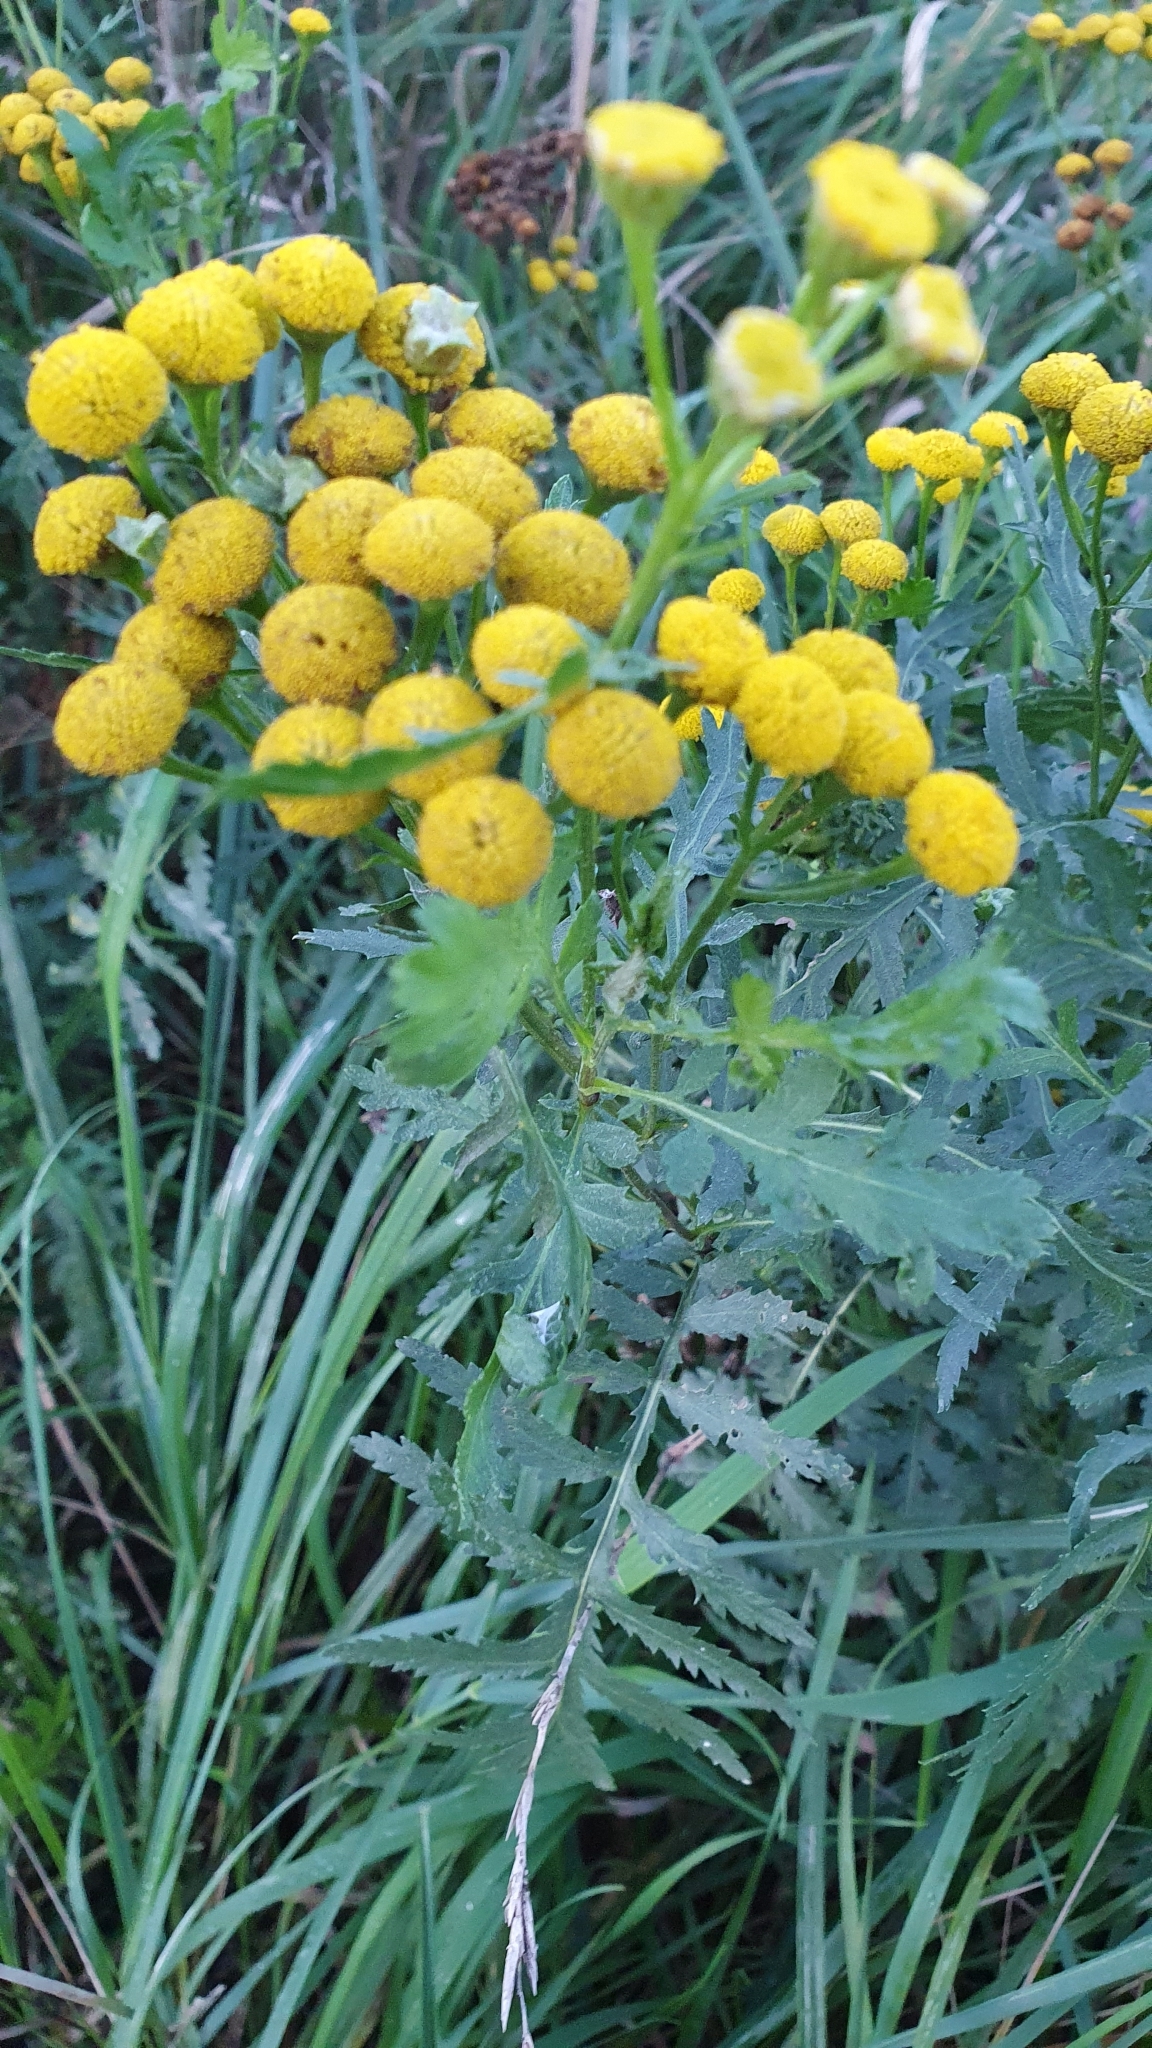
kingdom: Plantae
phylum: Tracheophyta
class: Magnoliopsida
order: Asterales
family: Asteraceae
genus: Tanacetum
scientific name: Tanacetum vulgare
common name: Common tansy
